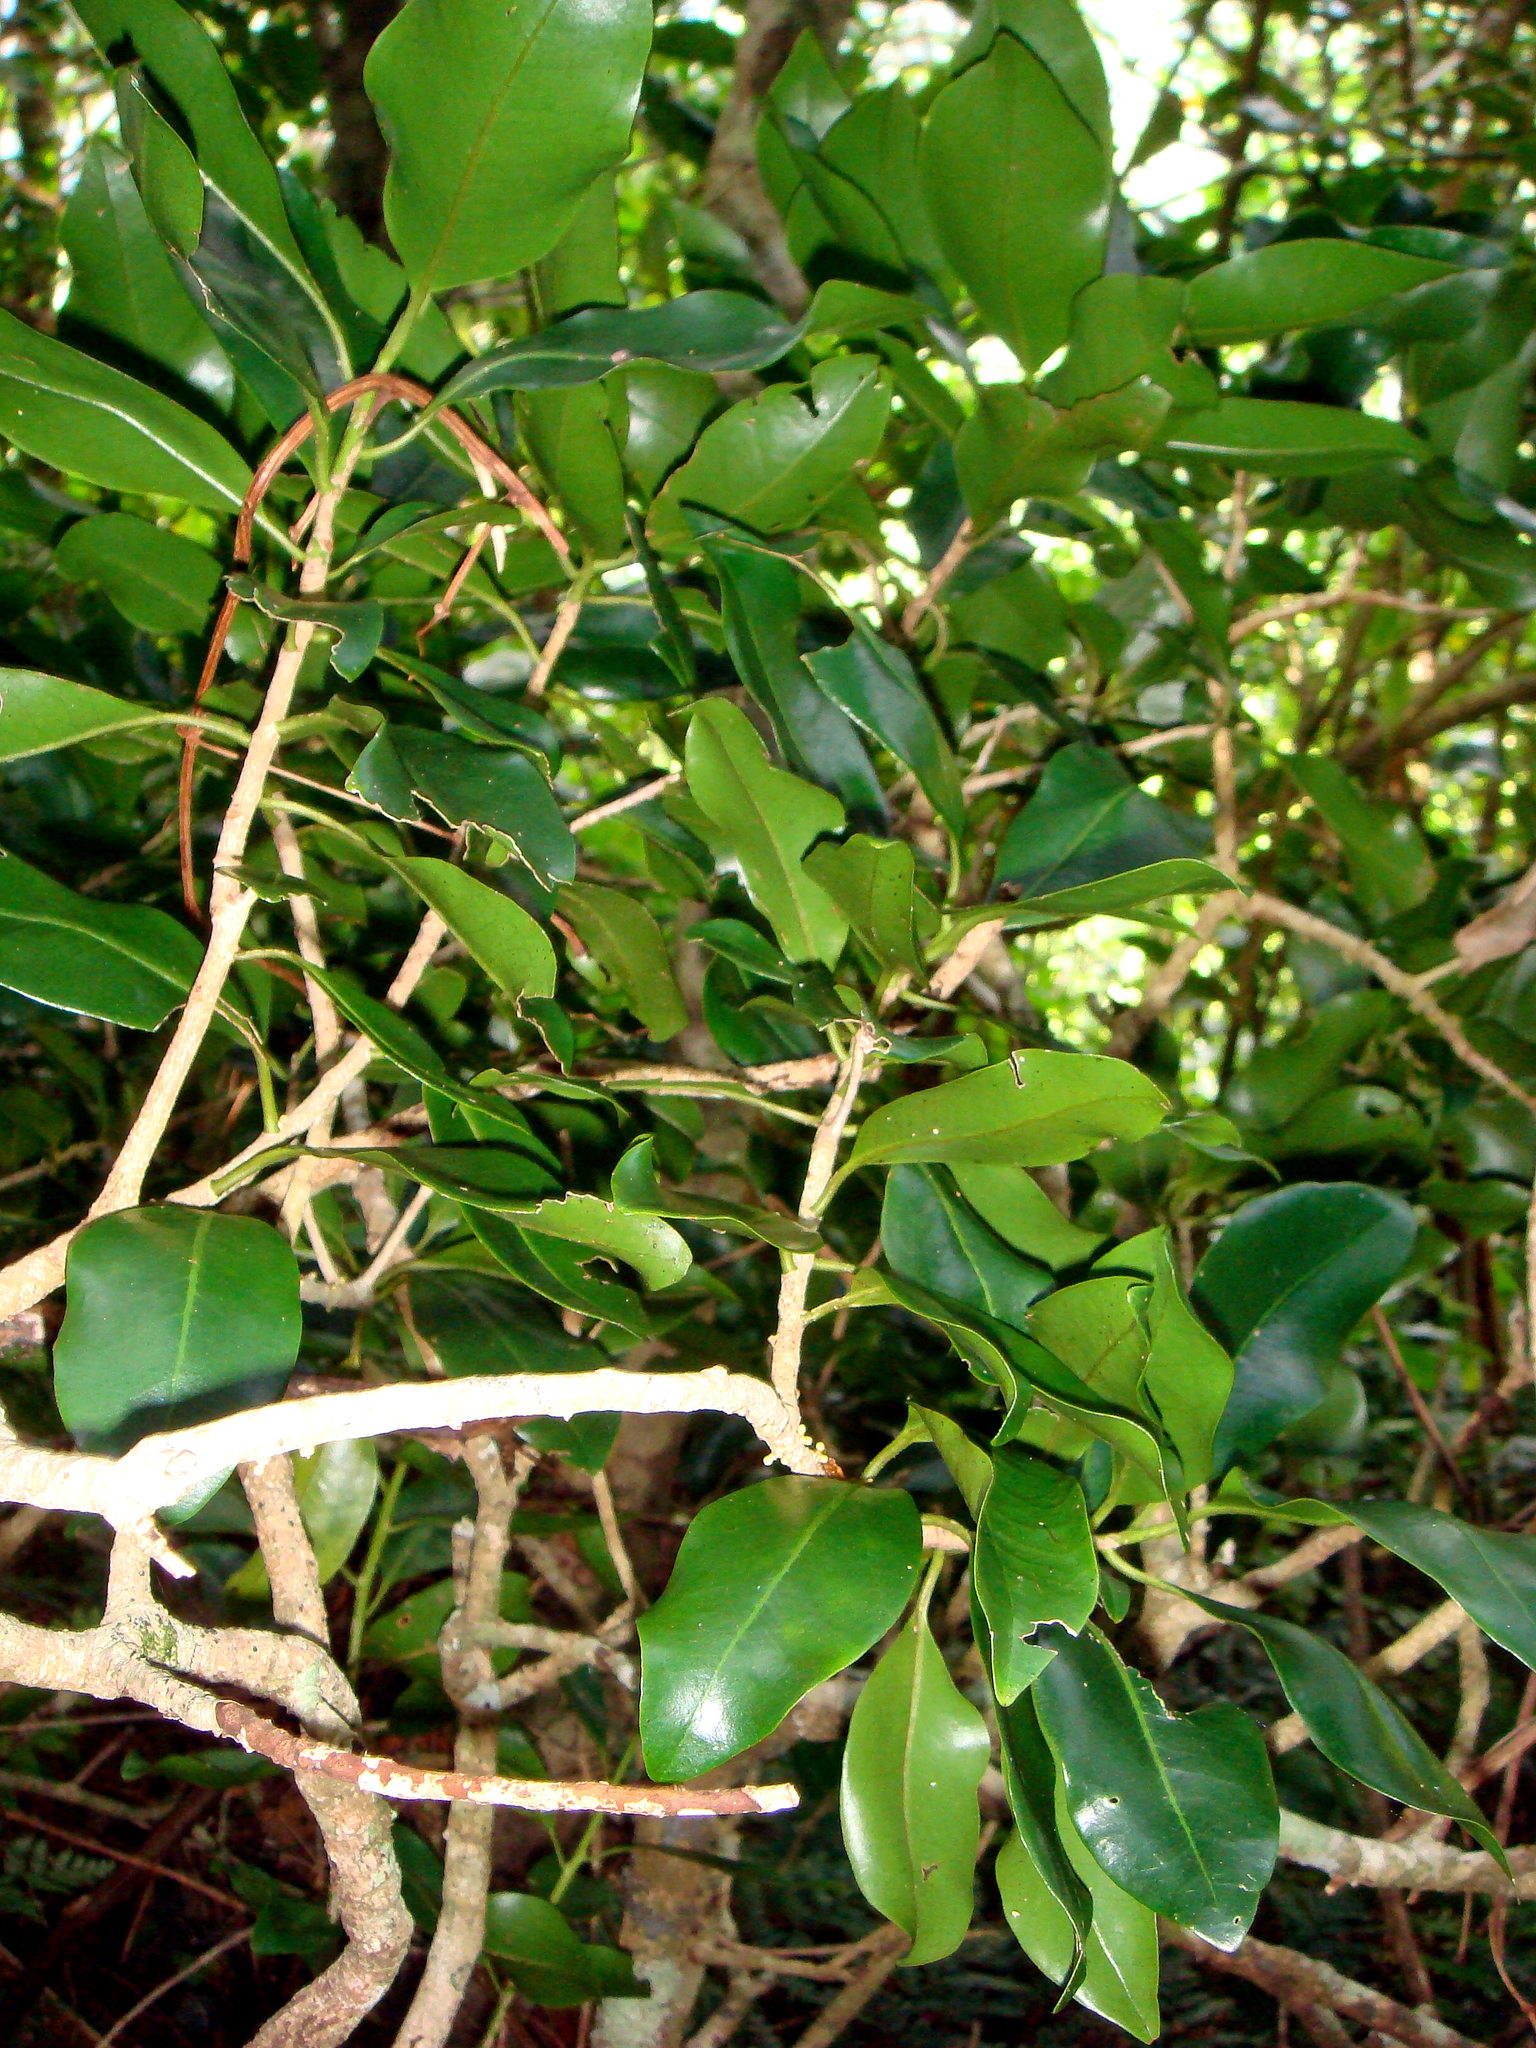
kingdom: Plantae
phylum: Tracheophyta
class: Magnoliopsida
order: Ericales
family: Primulaceae
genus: Myrsine
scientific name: Myrsine cheesemanii
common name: Cook islands myrsine
